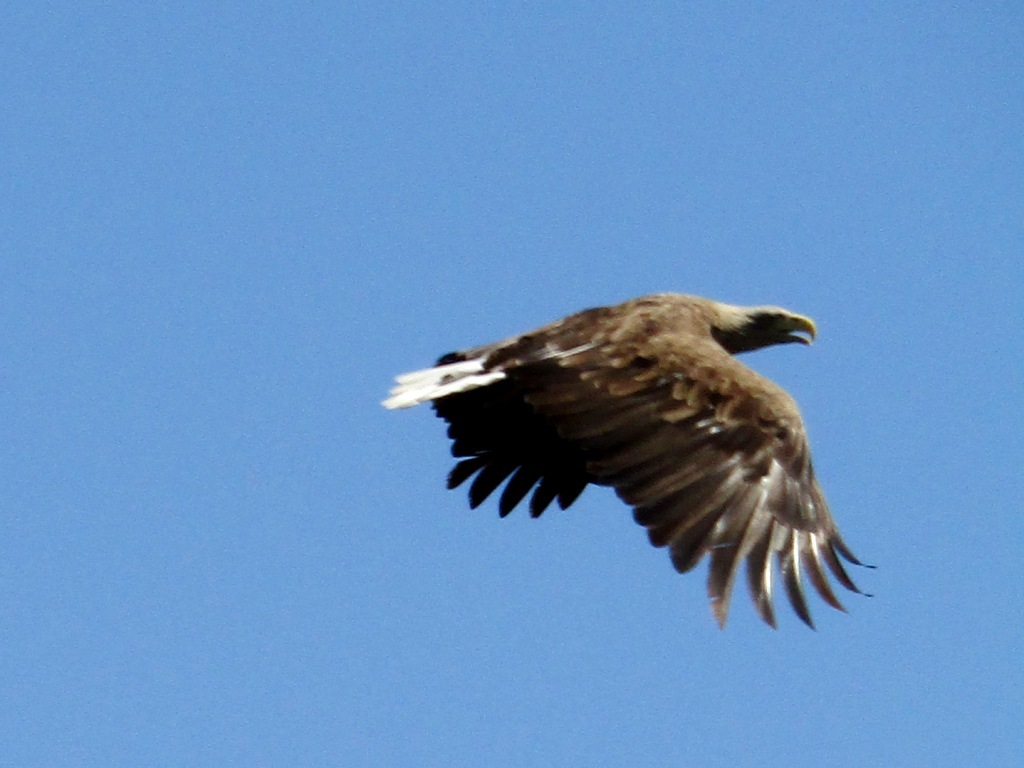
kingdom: Animalia
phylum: Chordata
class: Aves
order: Accipitriformes
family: Accipitridae
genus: Haliaeetus
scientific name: Haliaeetus albicilla
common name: White-tailed eagle
